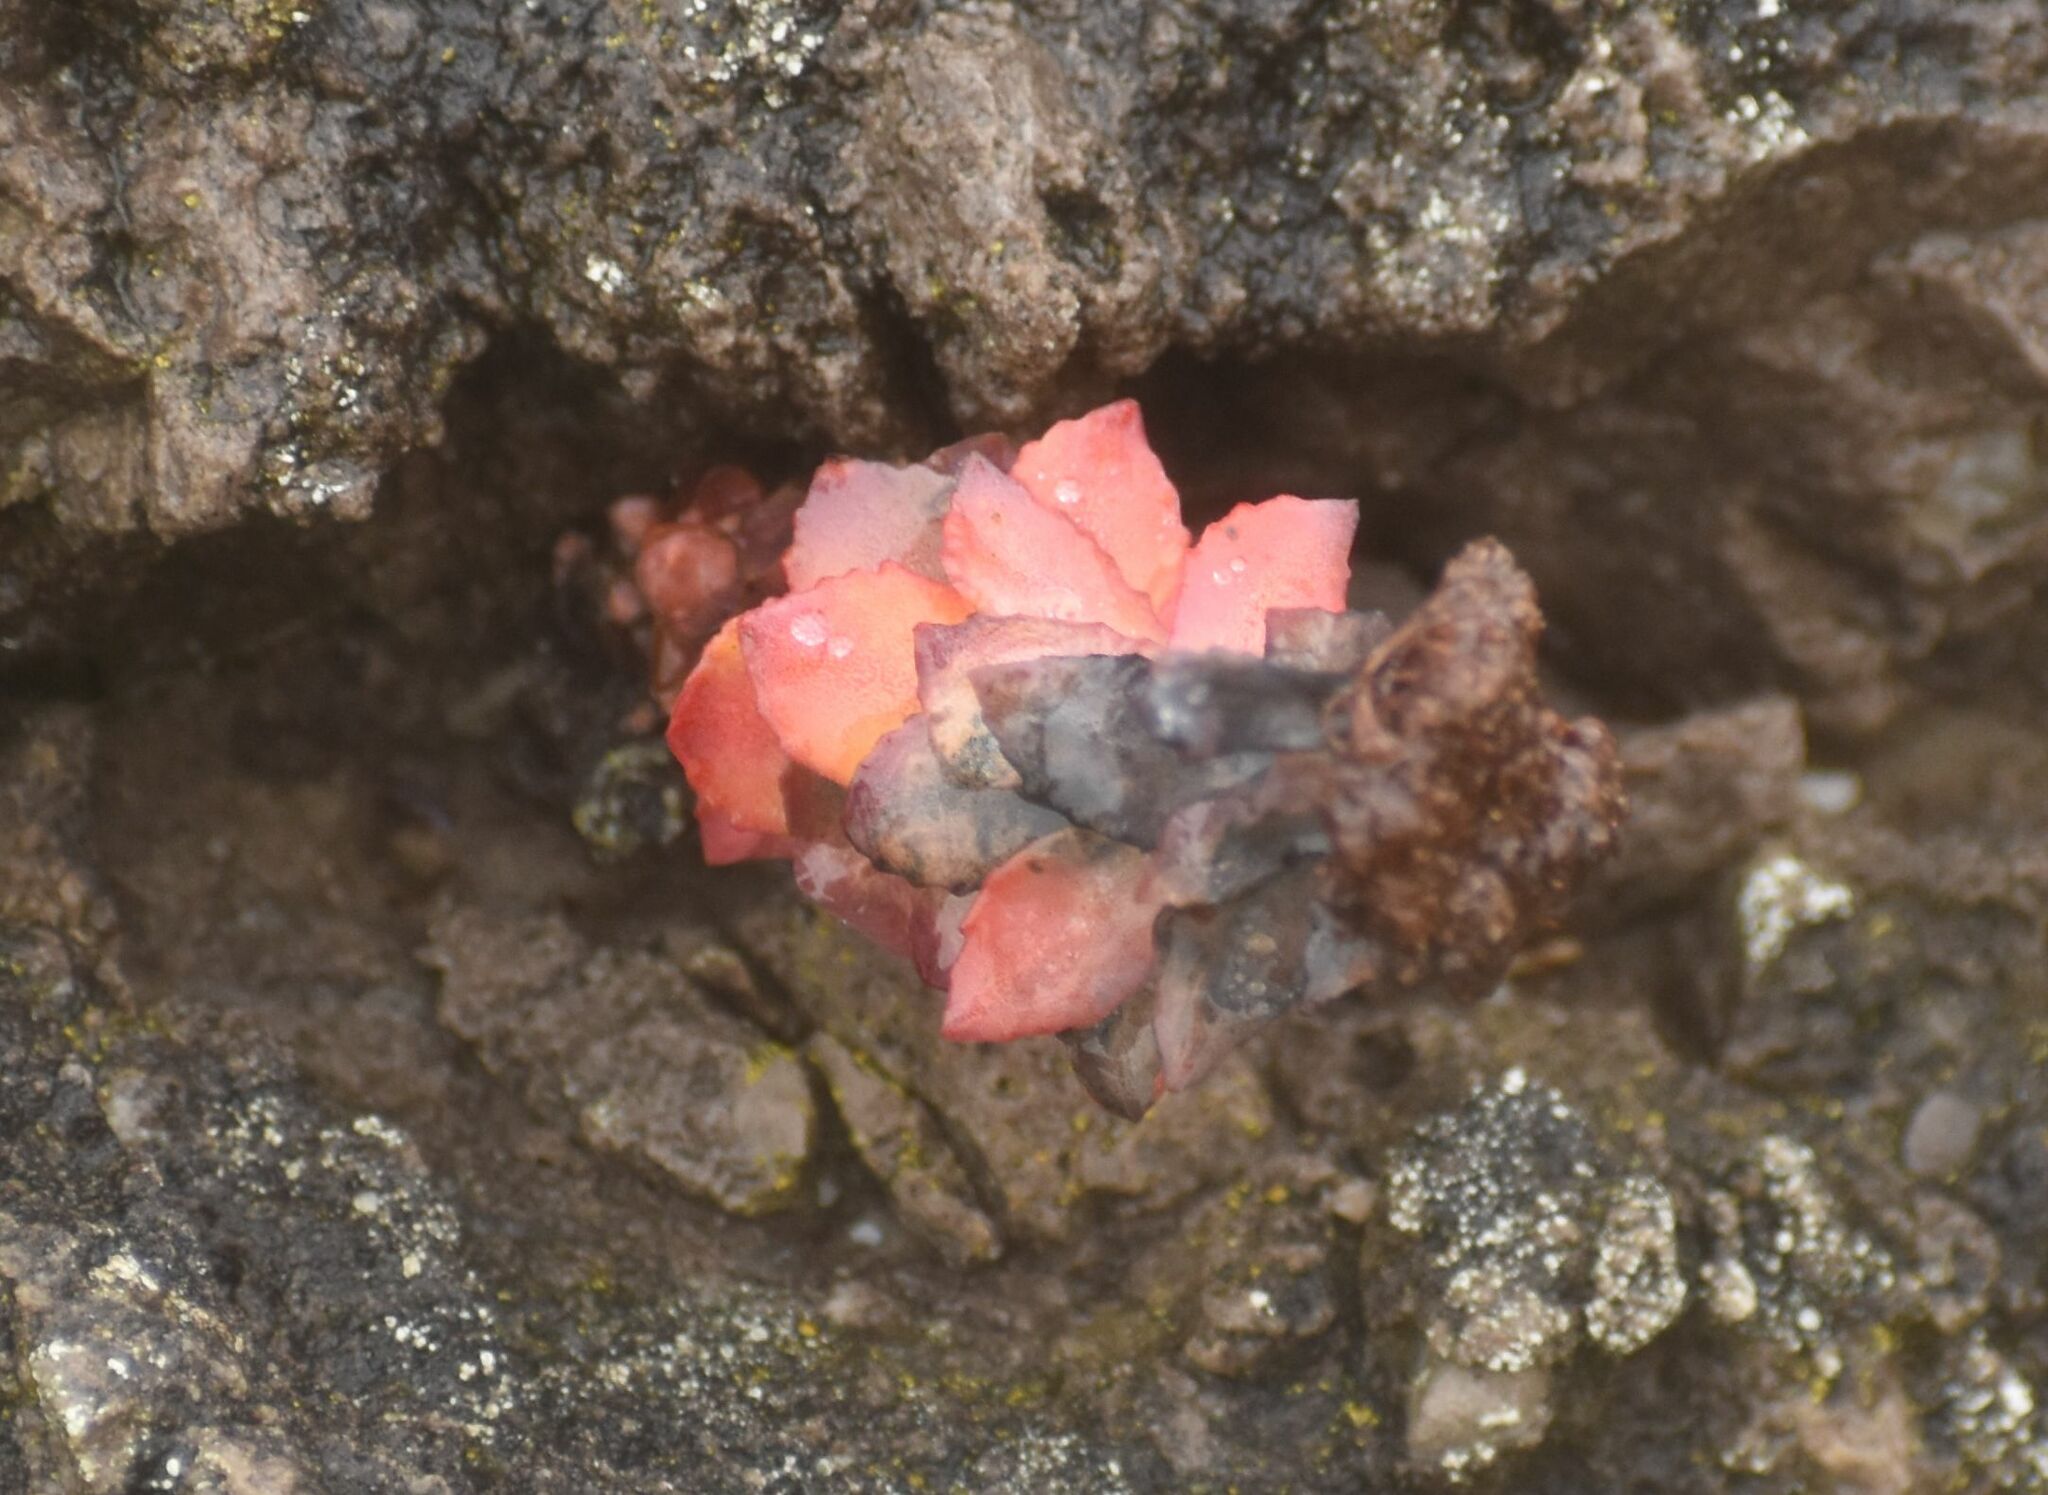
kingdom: Plantae
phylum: Tracheophyta
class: Magnoliopsida
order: Saxifragales
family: Crassulaceae
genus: Rhodiola
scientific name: Rhodiola rosea
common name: Roseroot
